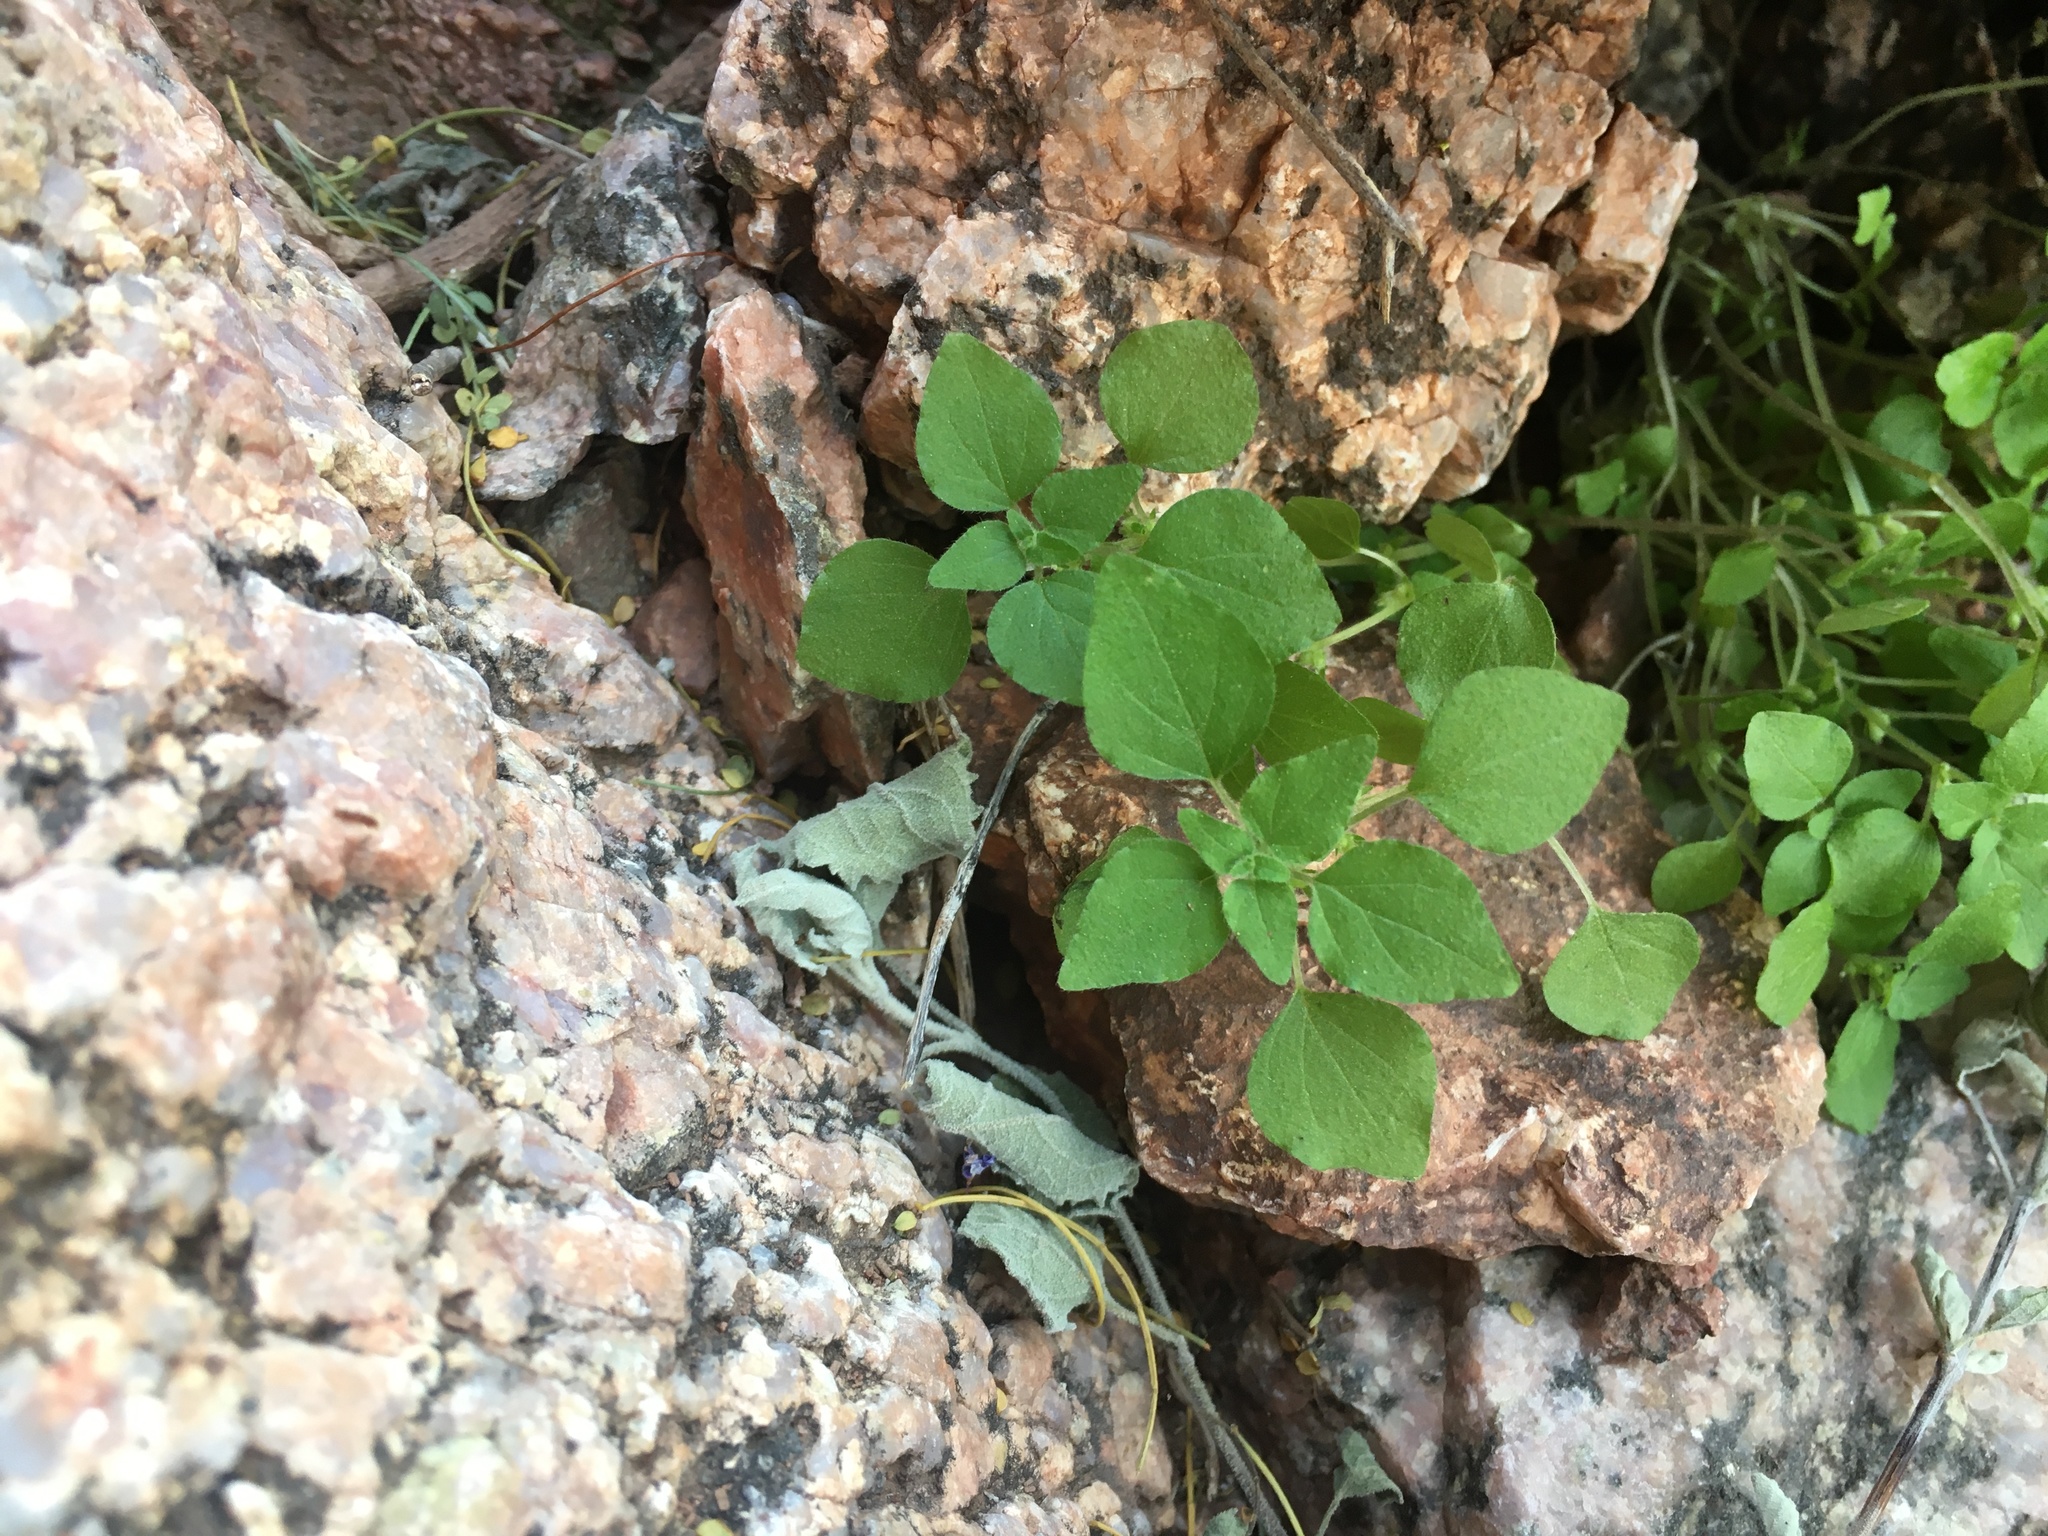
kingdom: Plantae
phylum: Tracheophyta
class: Magnoliopsida
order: Rosales
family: Urticaceae
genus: Parietaria
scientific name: Parietaria hespera
